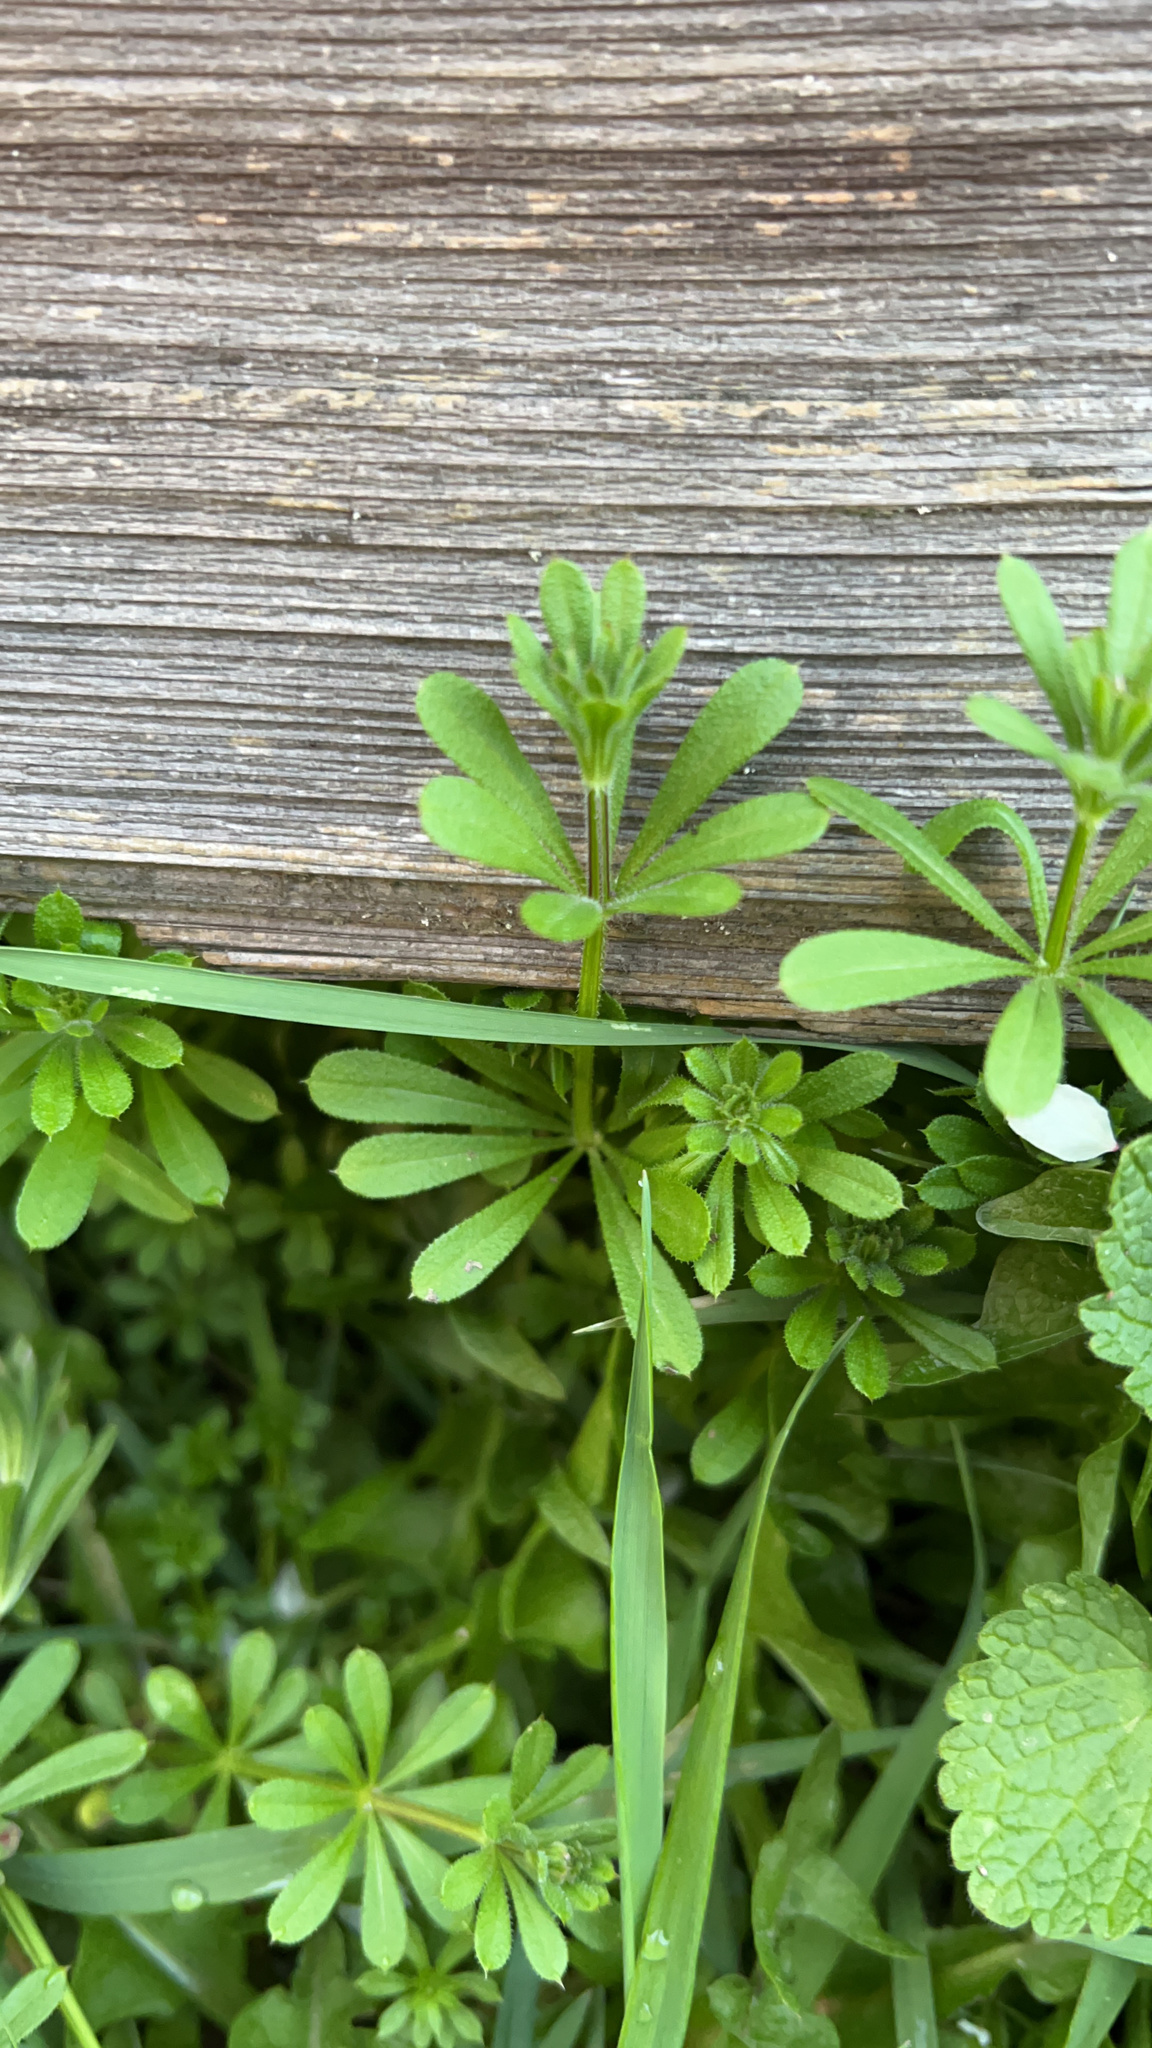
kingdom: Plantae
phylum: Tracheophyta
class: Magnoliopsida
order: Gentianales
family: Rubiaceae
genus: Galium
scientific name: Galium aparine
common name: Cleavers
